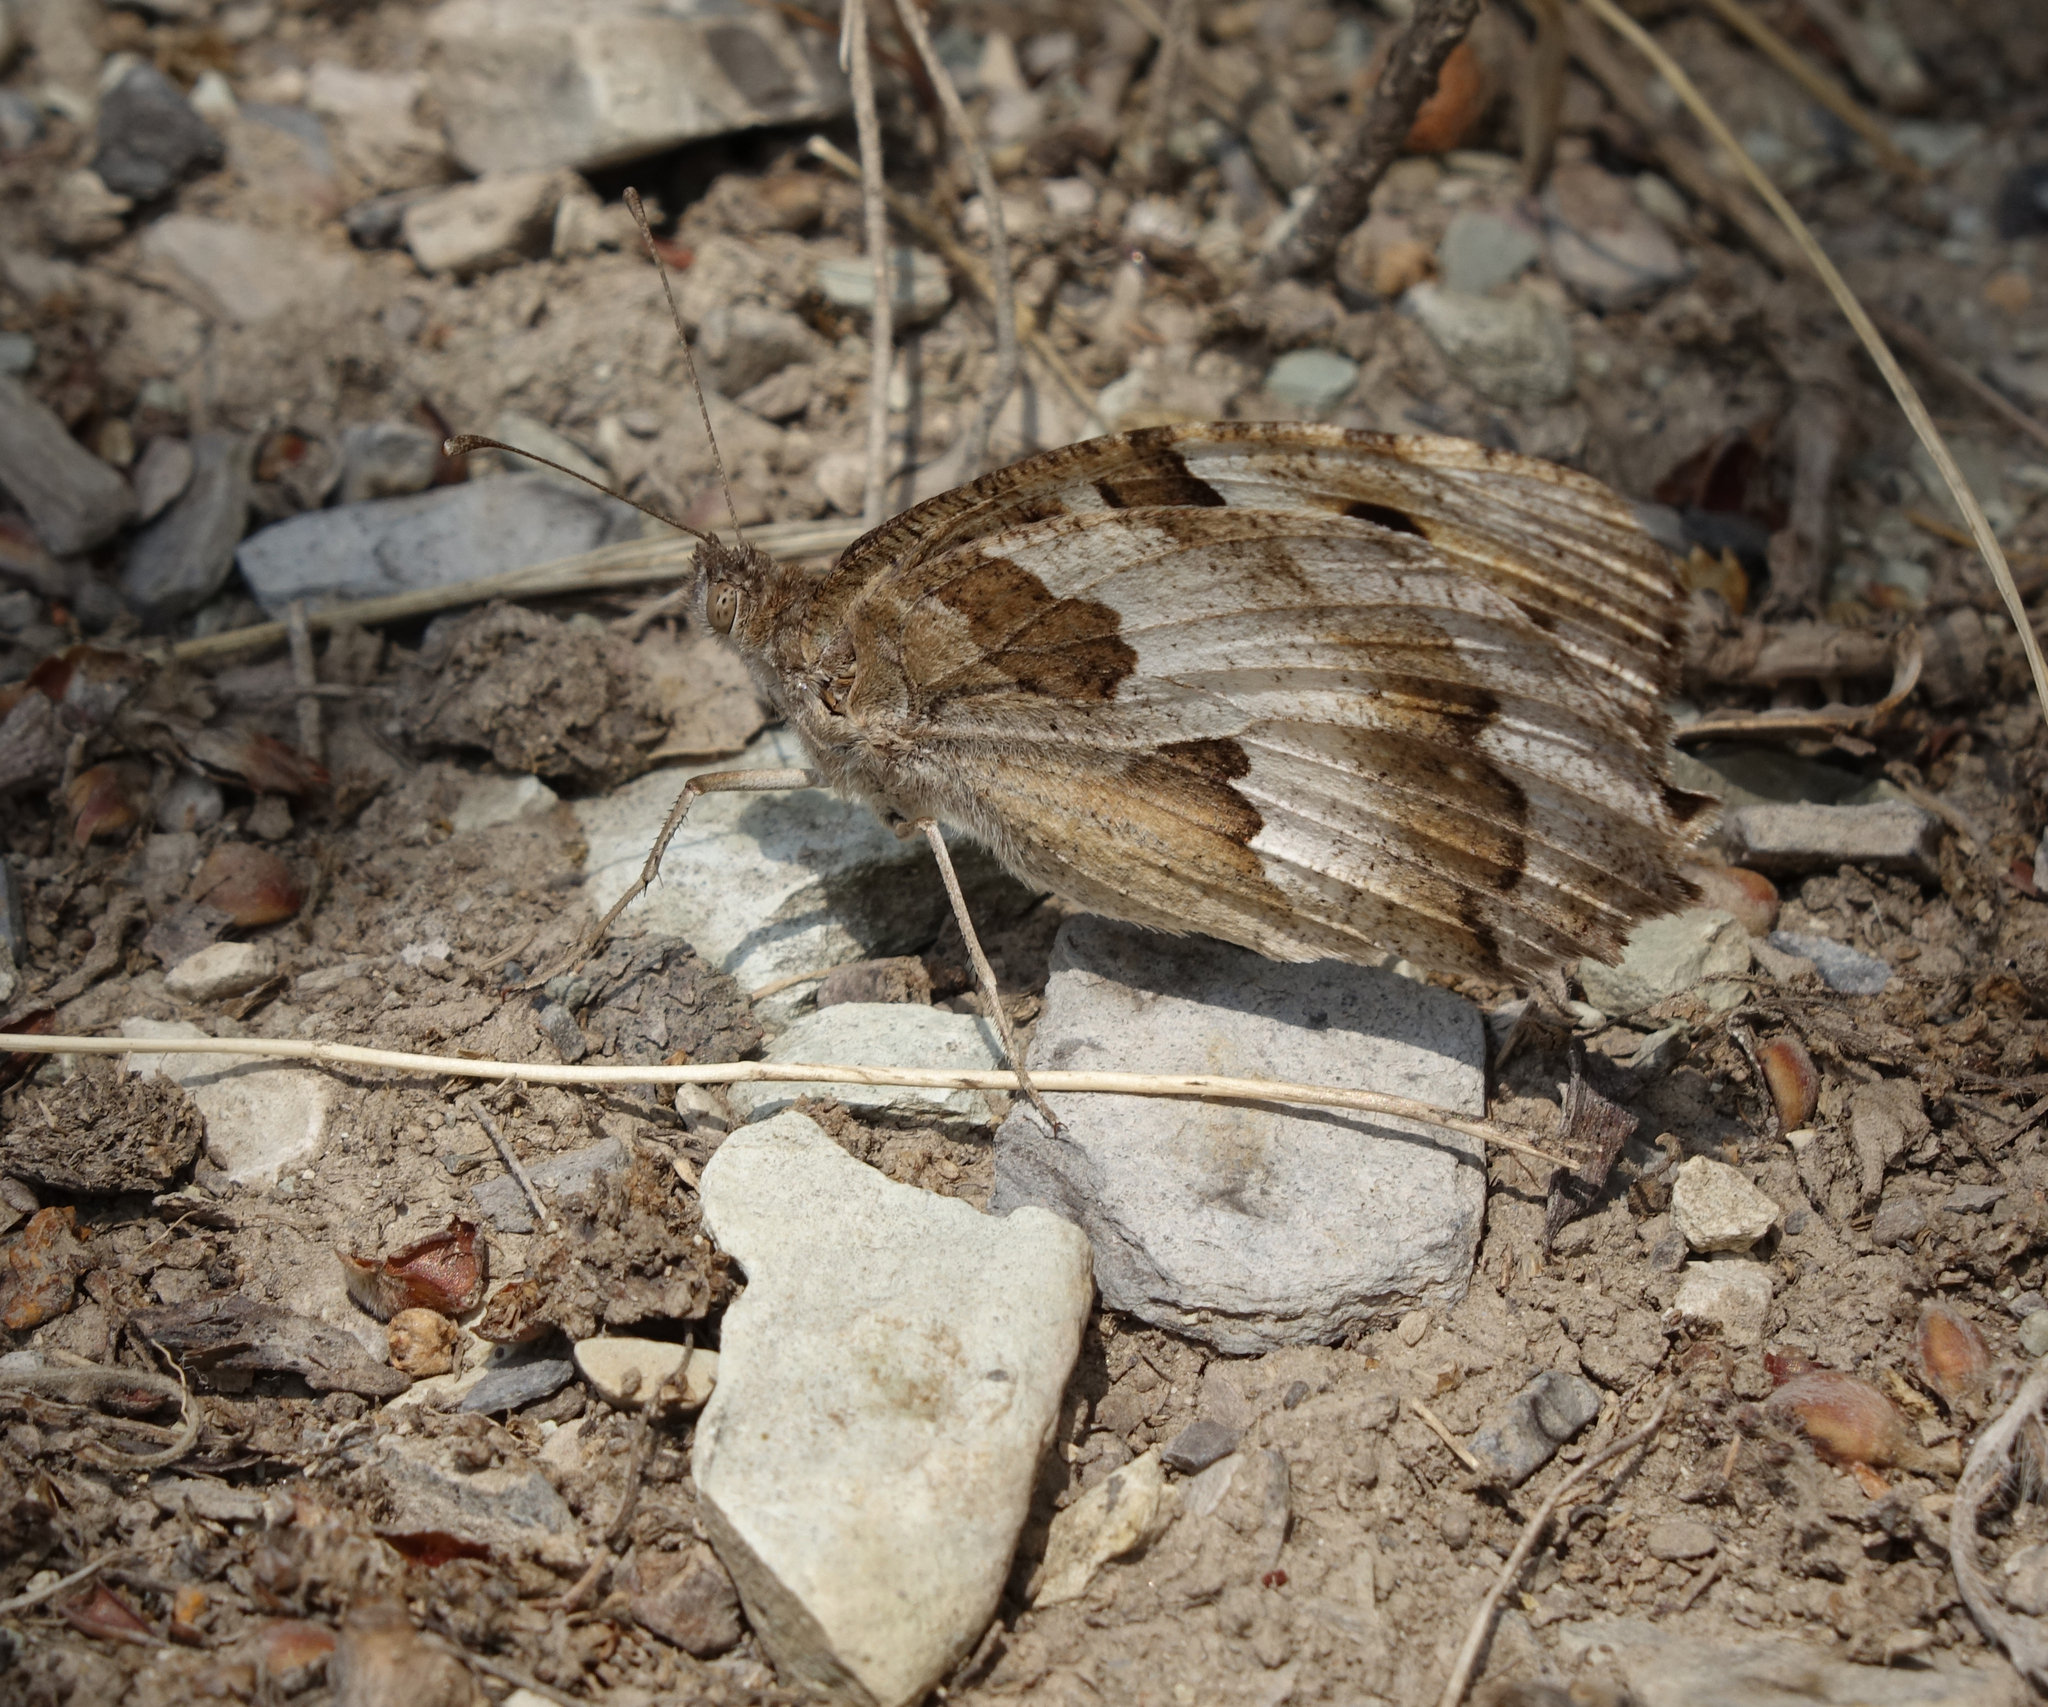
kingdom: Animalia
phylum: Arthropoda
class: Insecta
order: Lepidoptera
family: Nymphalidae
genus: Satyrus
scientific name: Satyrus briseis
